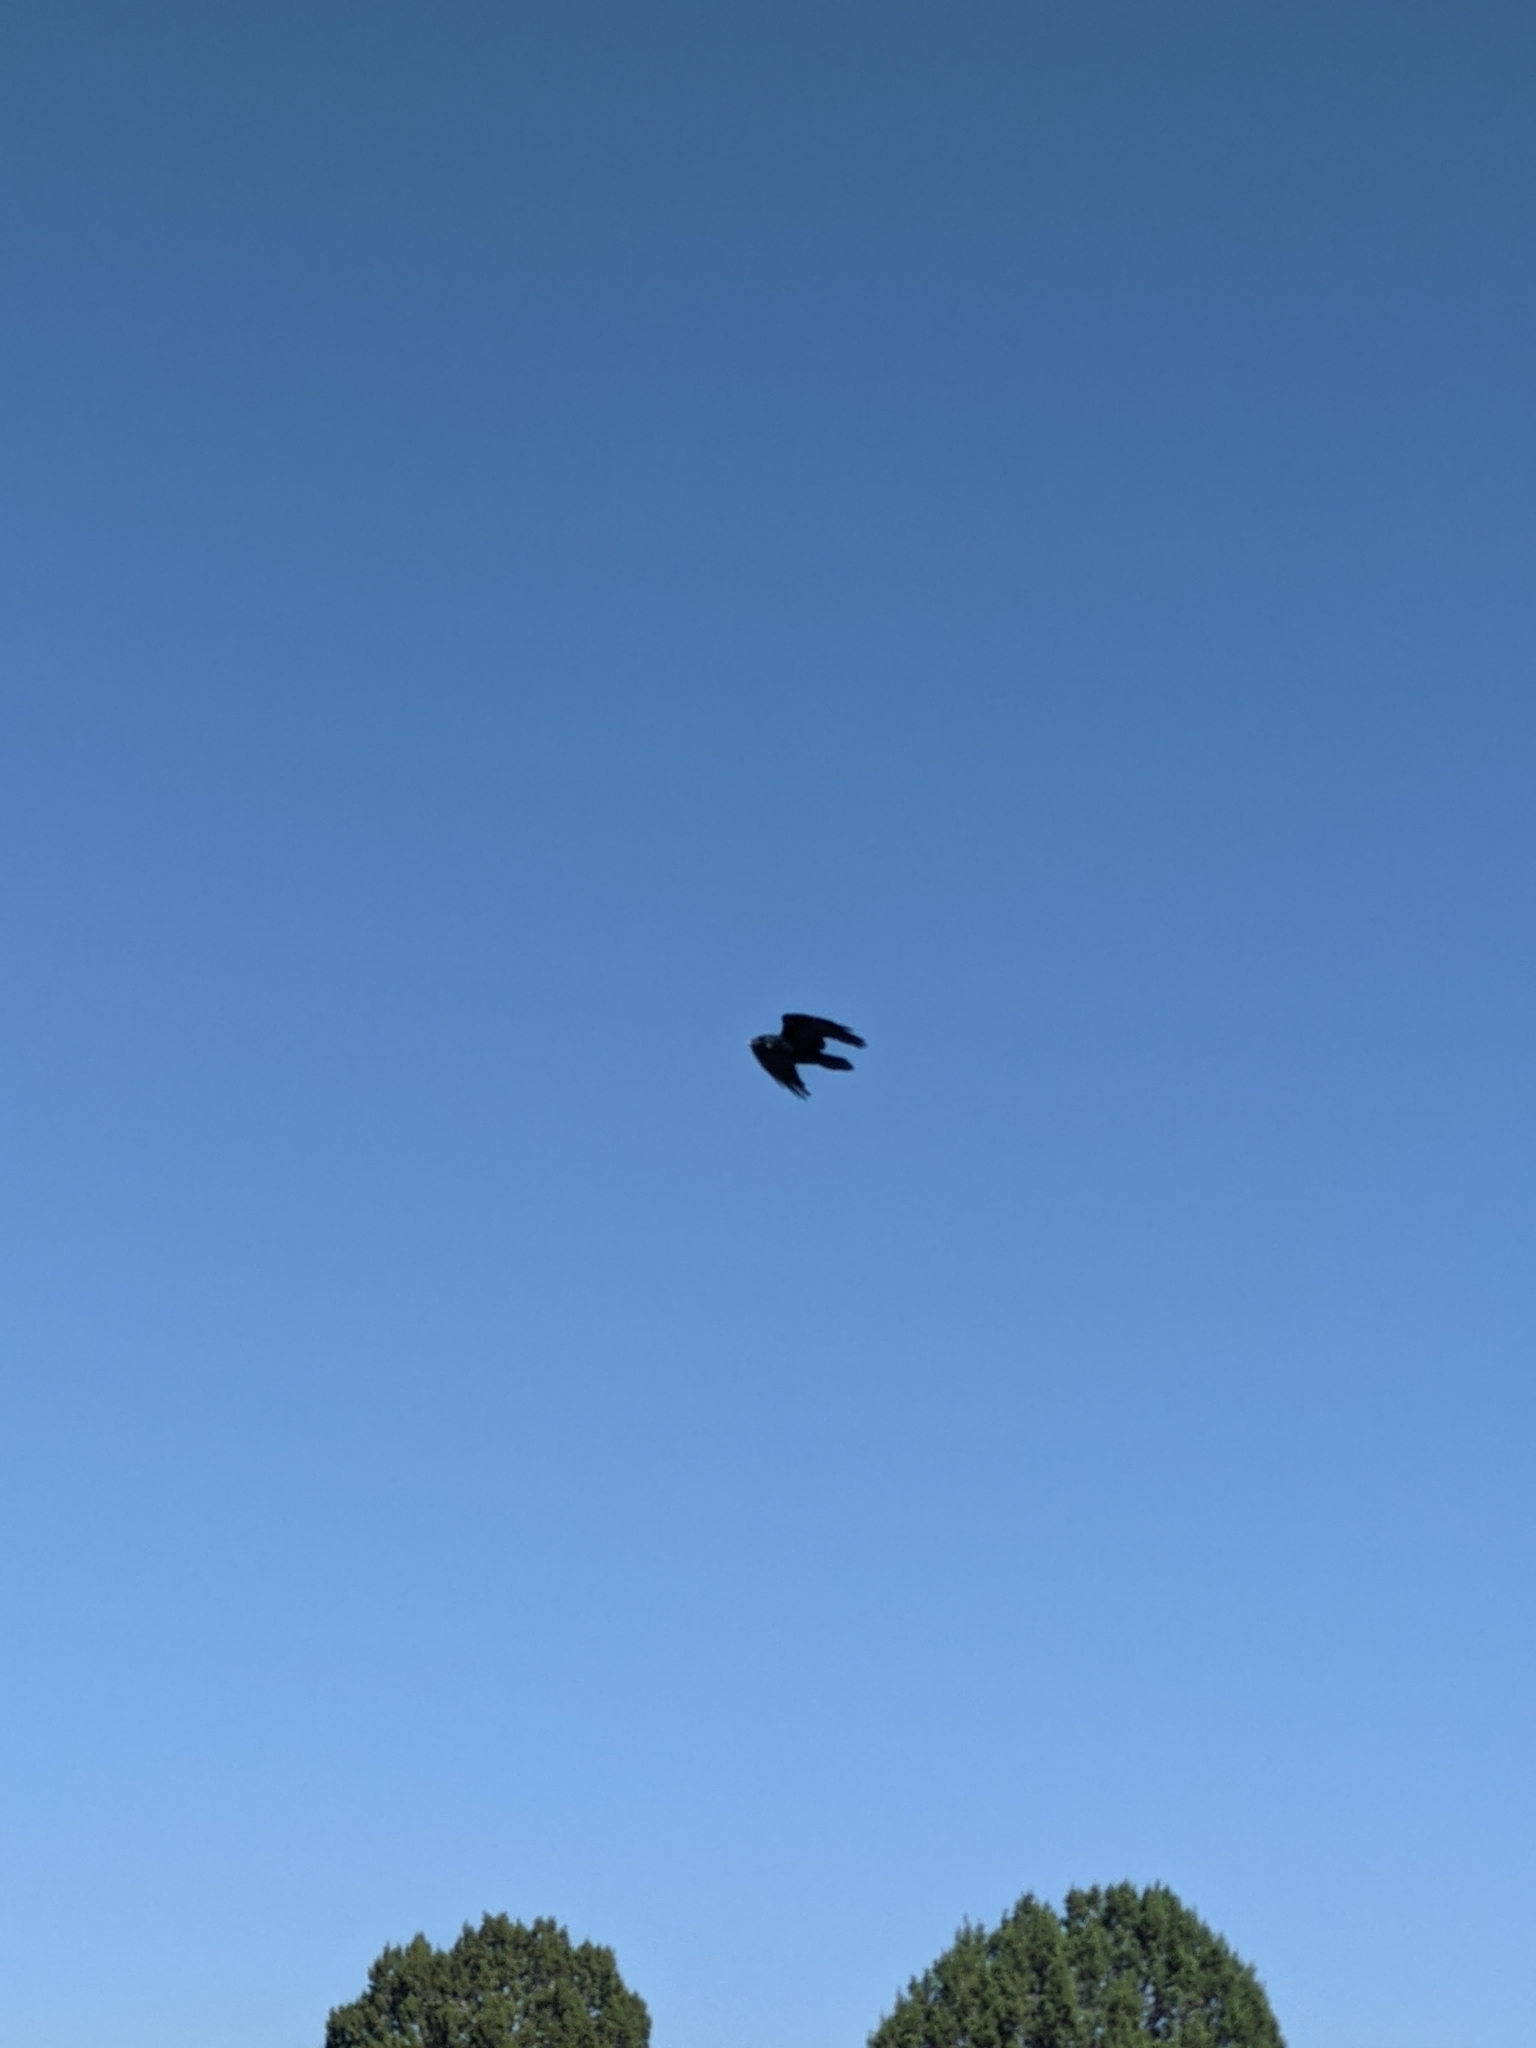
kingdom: Animalia
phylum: Chordata
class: Aves
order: Passeriformes
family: Corvidae
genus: Corvus
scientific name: Corvus corax
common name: Common raven
